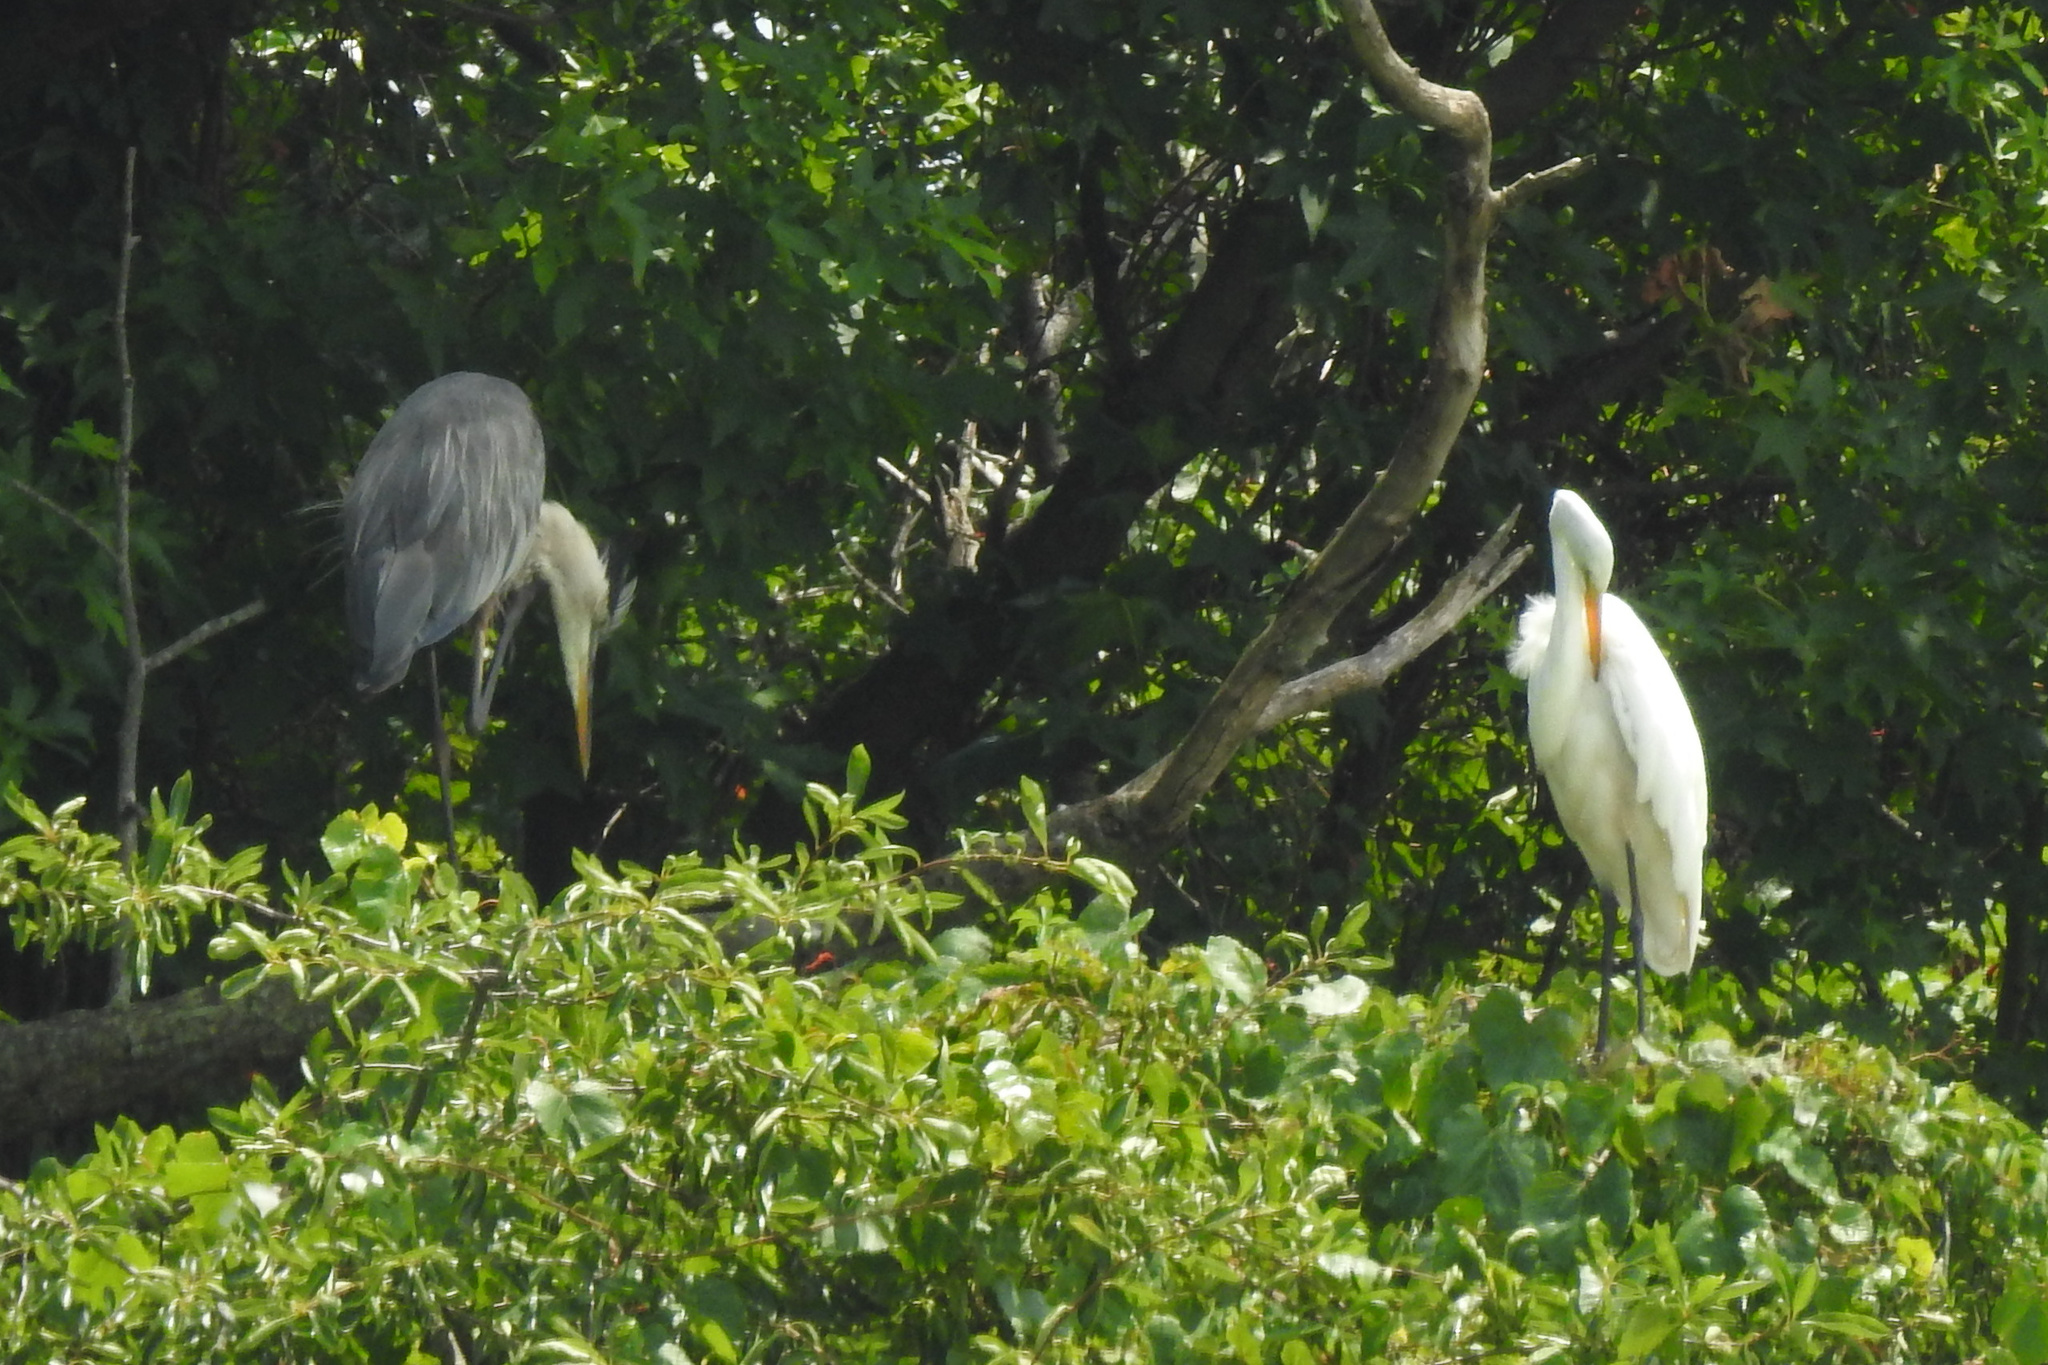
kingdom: Animalia
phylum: Chordata
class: Aves
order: Pelecaniformes
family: Ardeidae
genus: Ardea
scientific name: Ardea herodias
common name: Great blue heron
